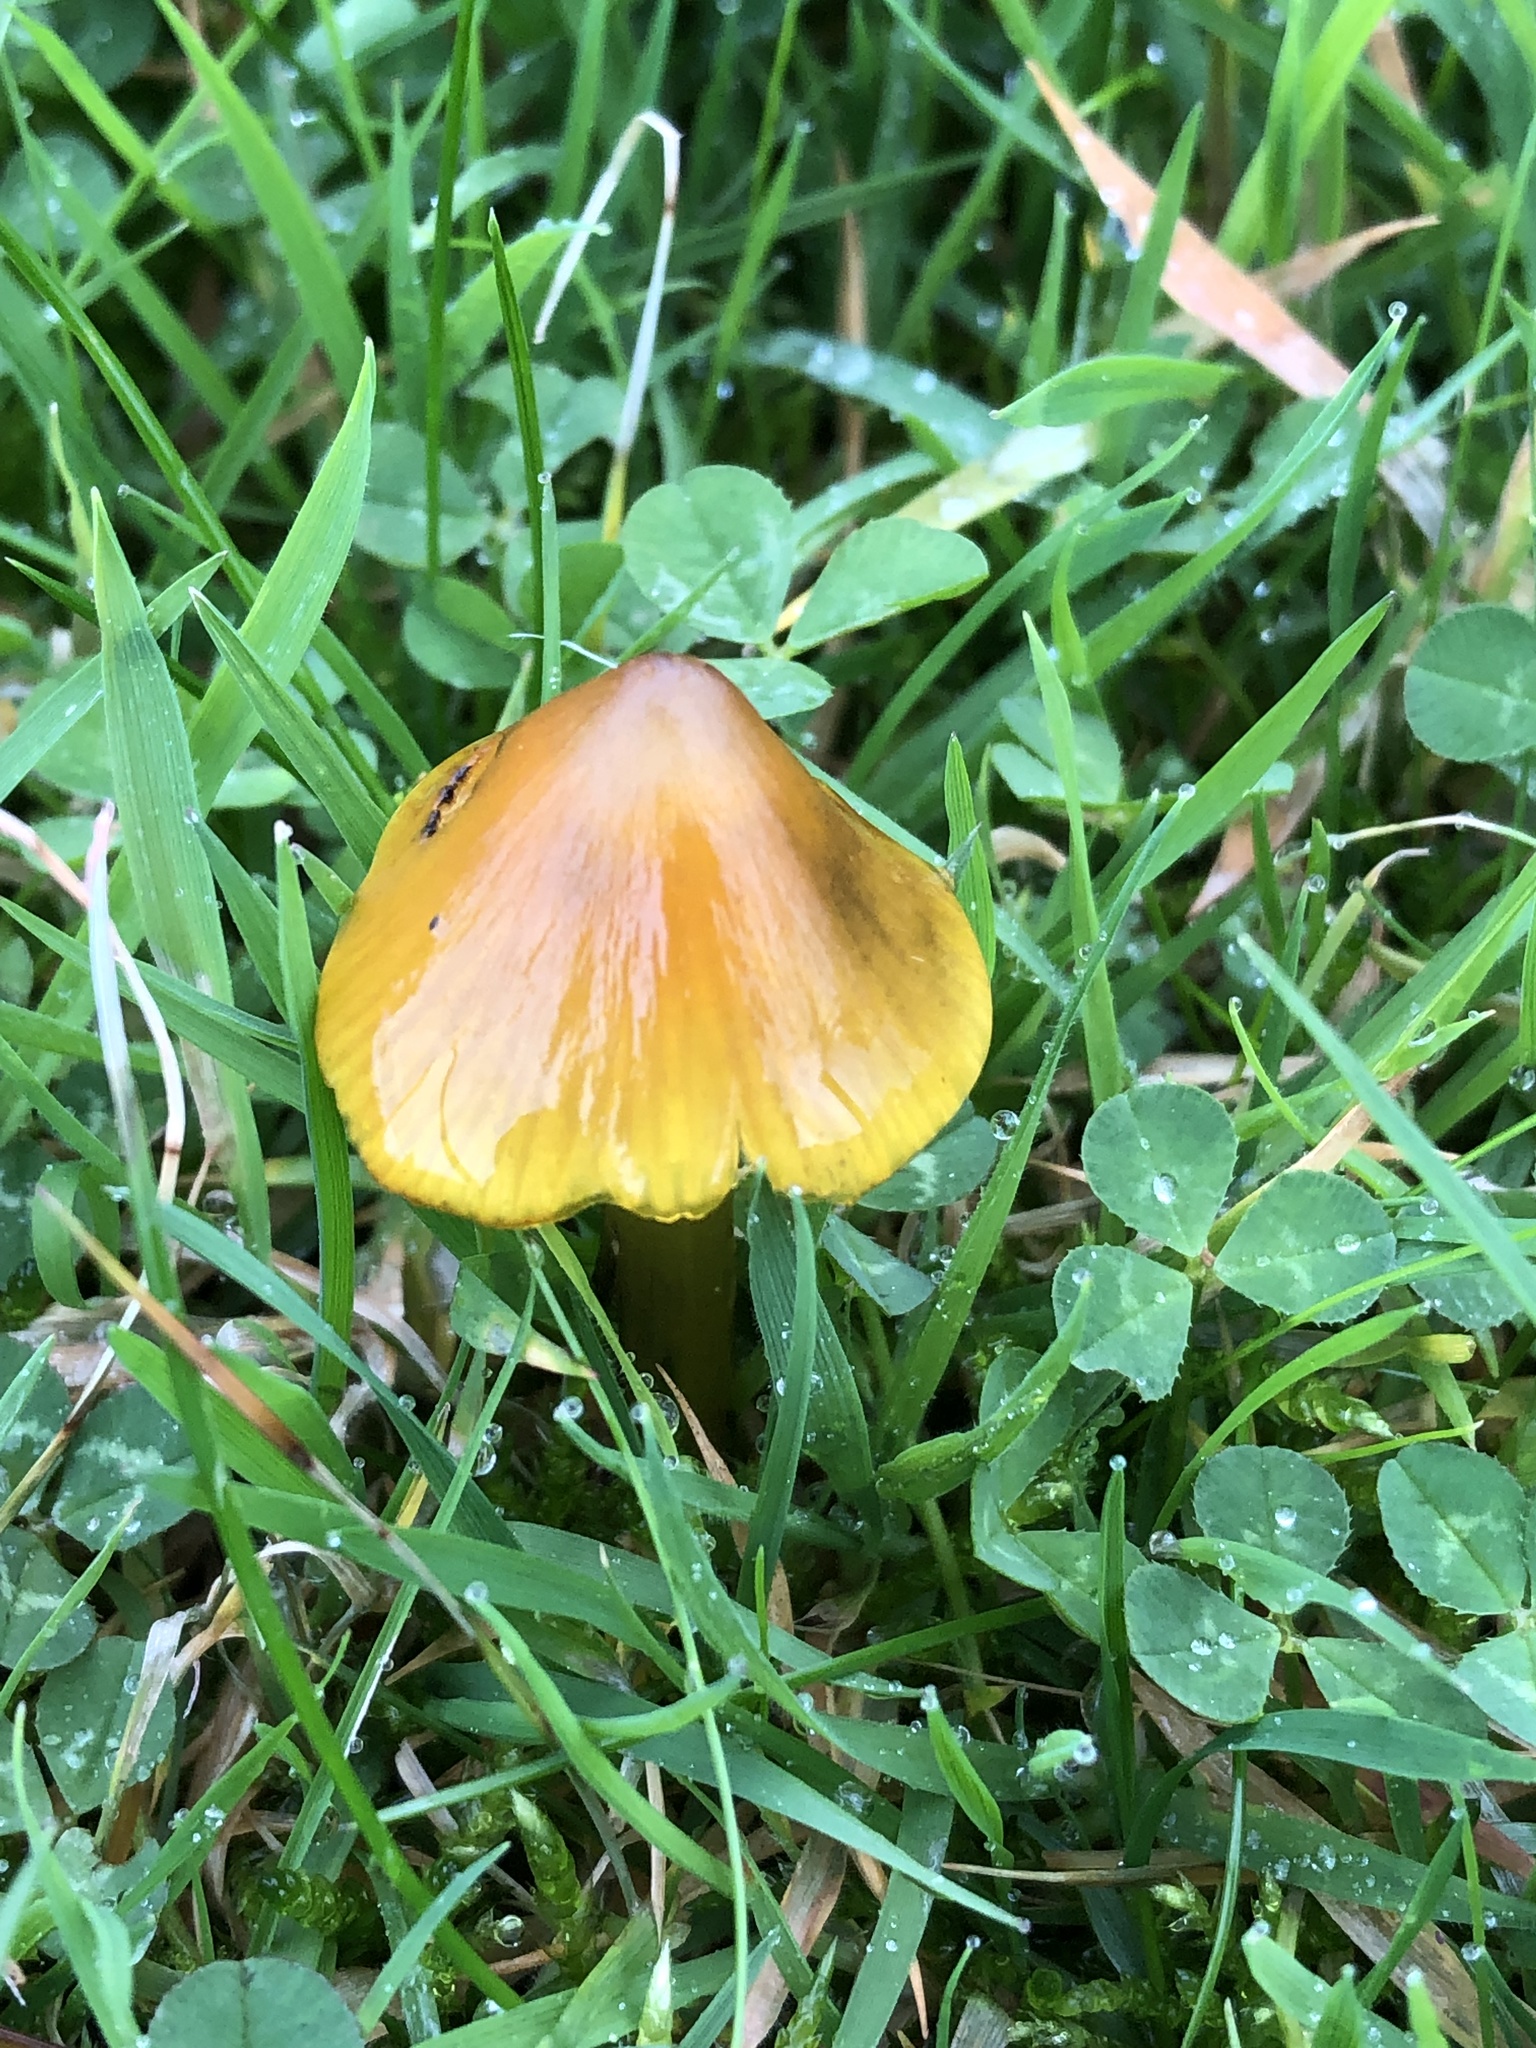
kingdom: Fungi
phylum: Basidiomycota
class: Agaricomycetes
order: Agaricales
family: Hygrophoraceae
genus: Hygrocybe
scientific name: Hygrocybe conica
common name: Blackening wax-cap
